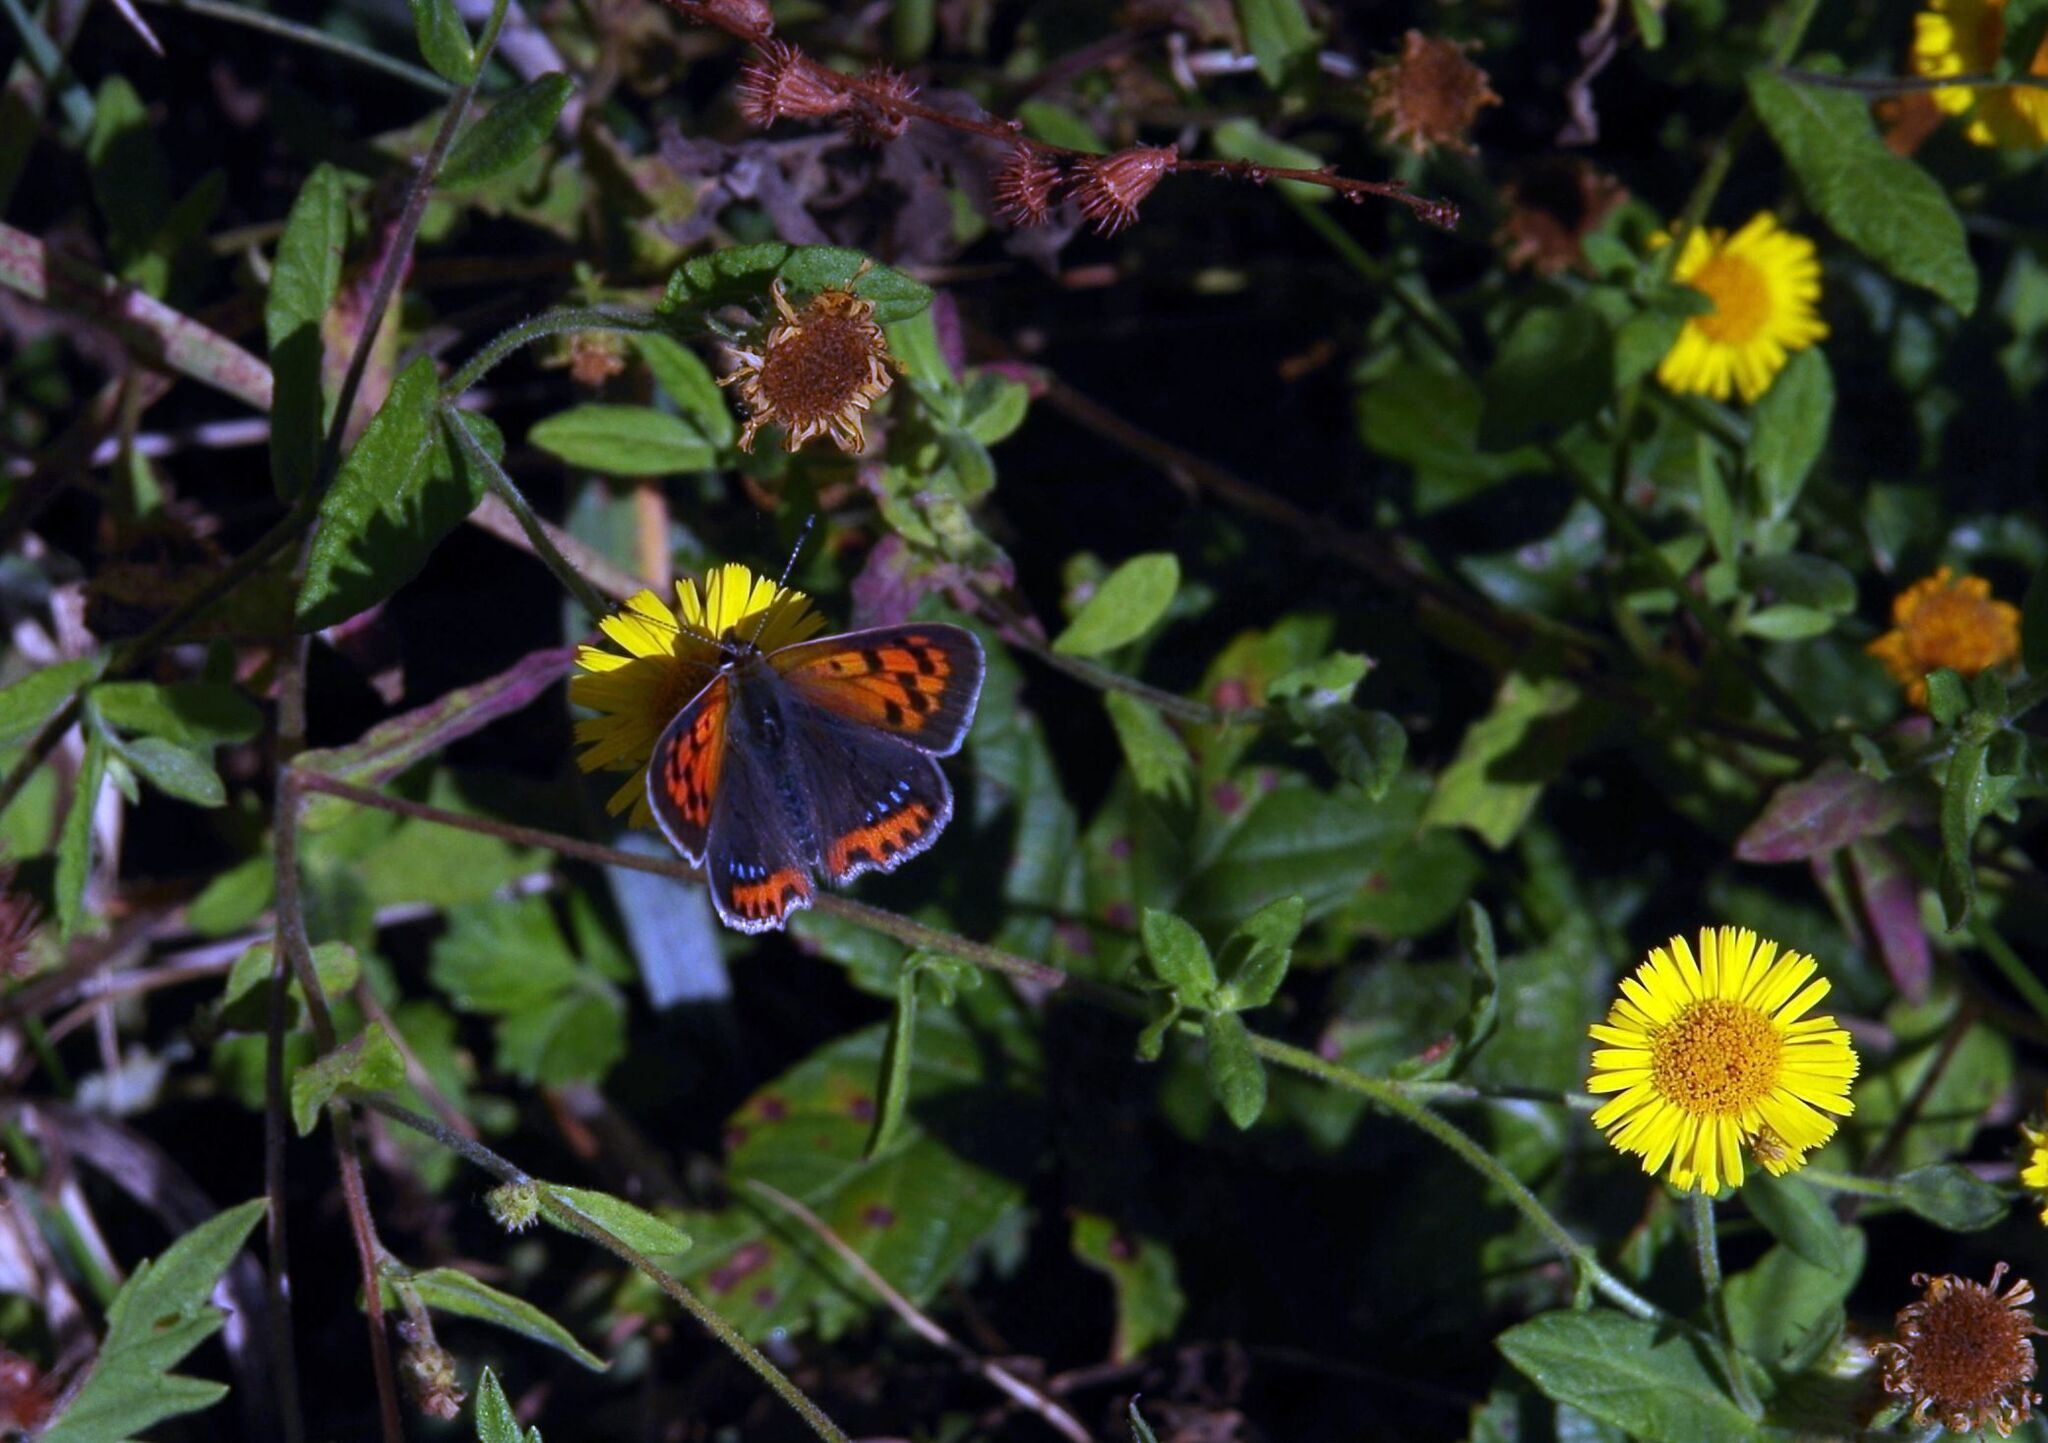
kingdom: Animalia
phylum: Arthropoda
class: Insecta
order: Lepidoptera
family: Lycaenidae
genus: Lycaena
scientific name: Lycaena phlaeas
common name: Small copper
